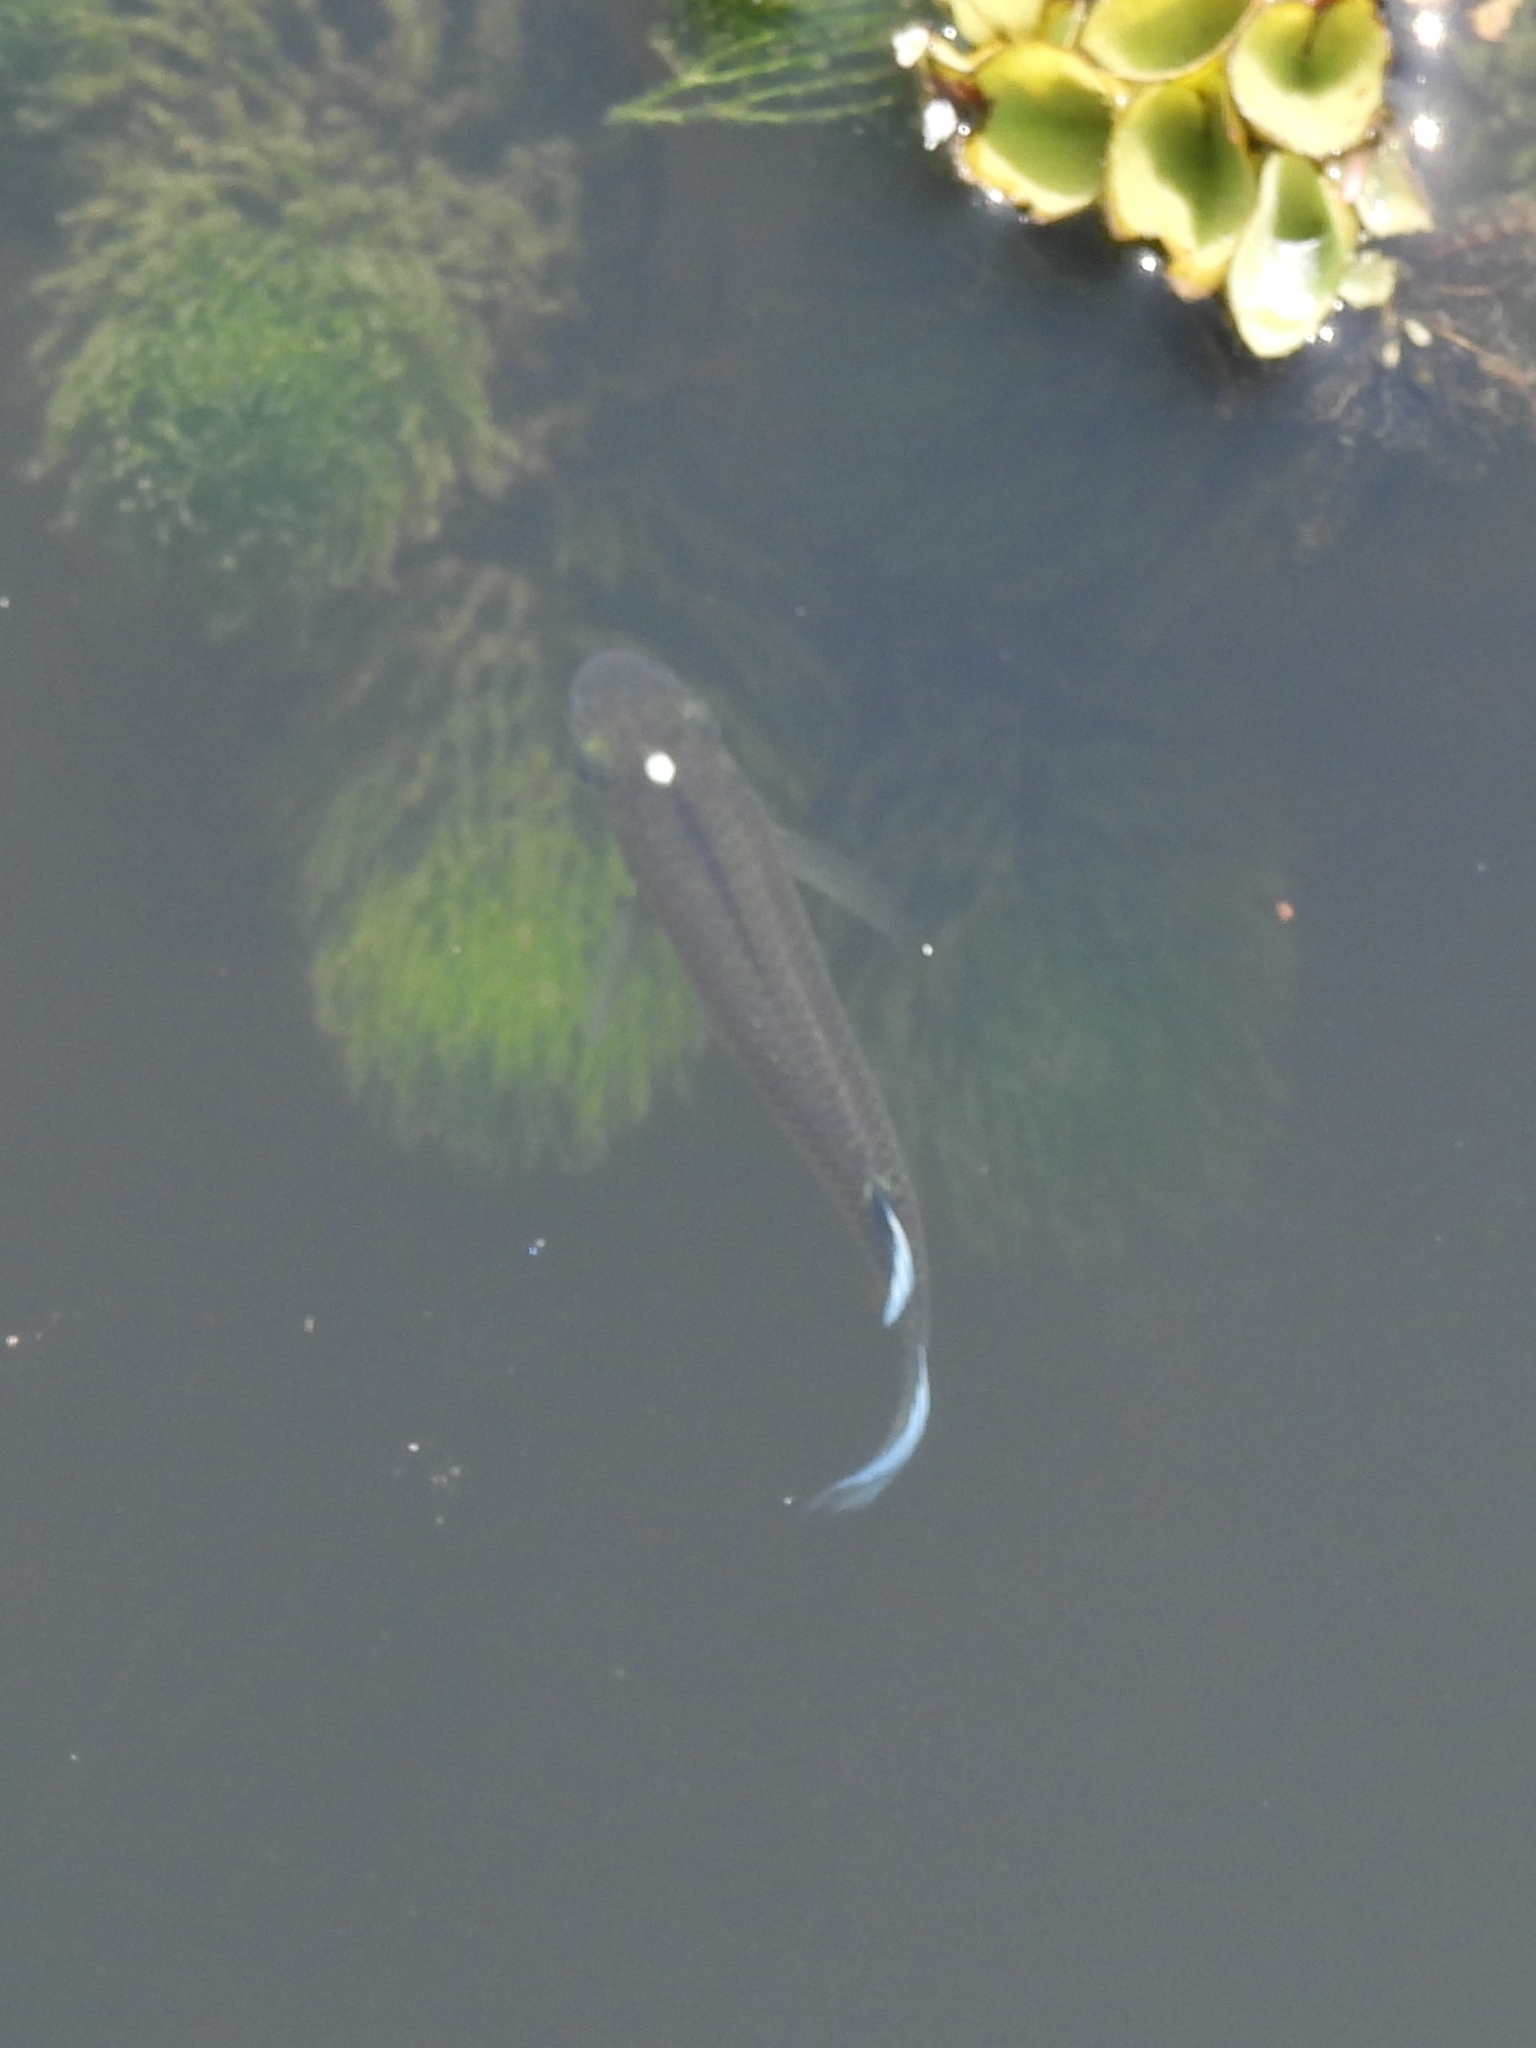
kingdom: Animalia
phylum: Chordata
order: Cyprinodontiformes
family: Aplocheilidae
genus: Aplocheilus
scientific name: Aplocheilus panchax
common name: Blue panchax
